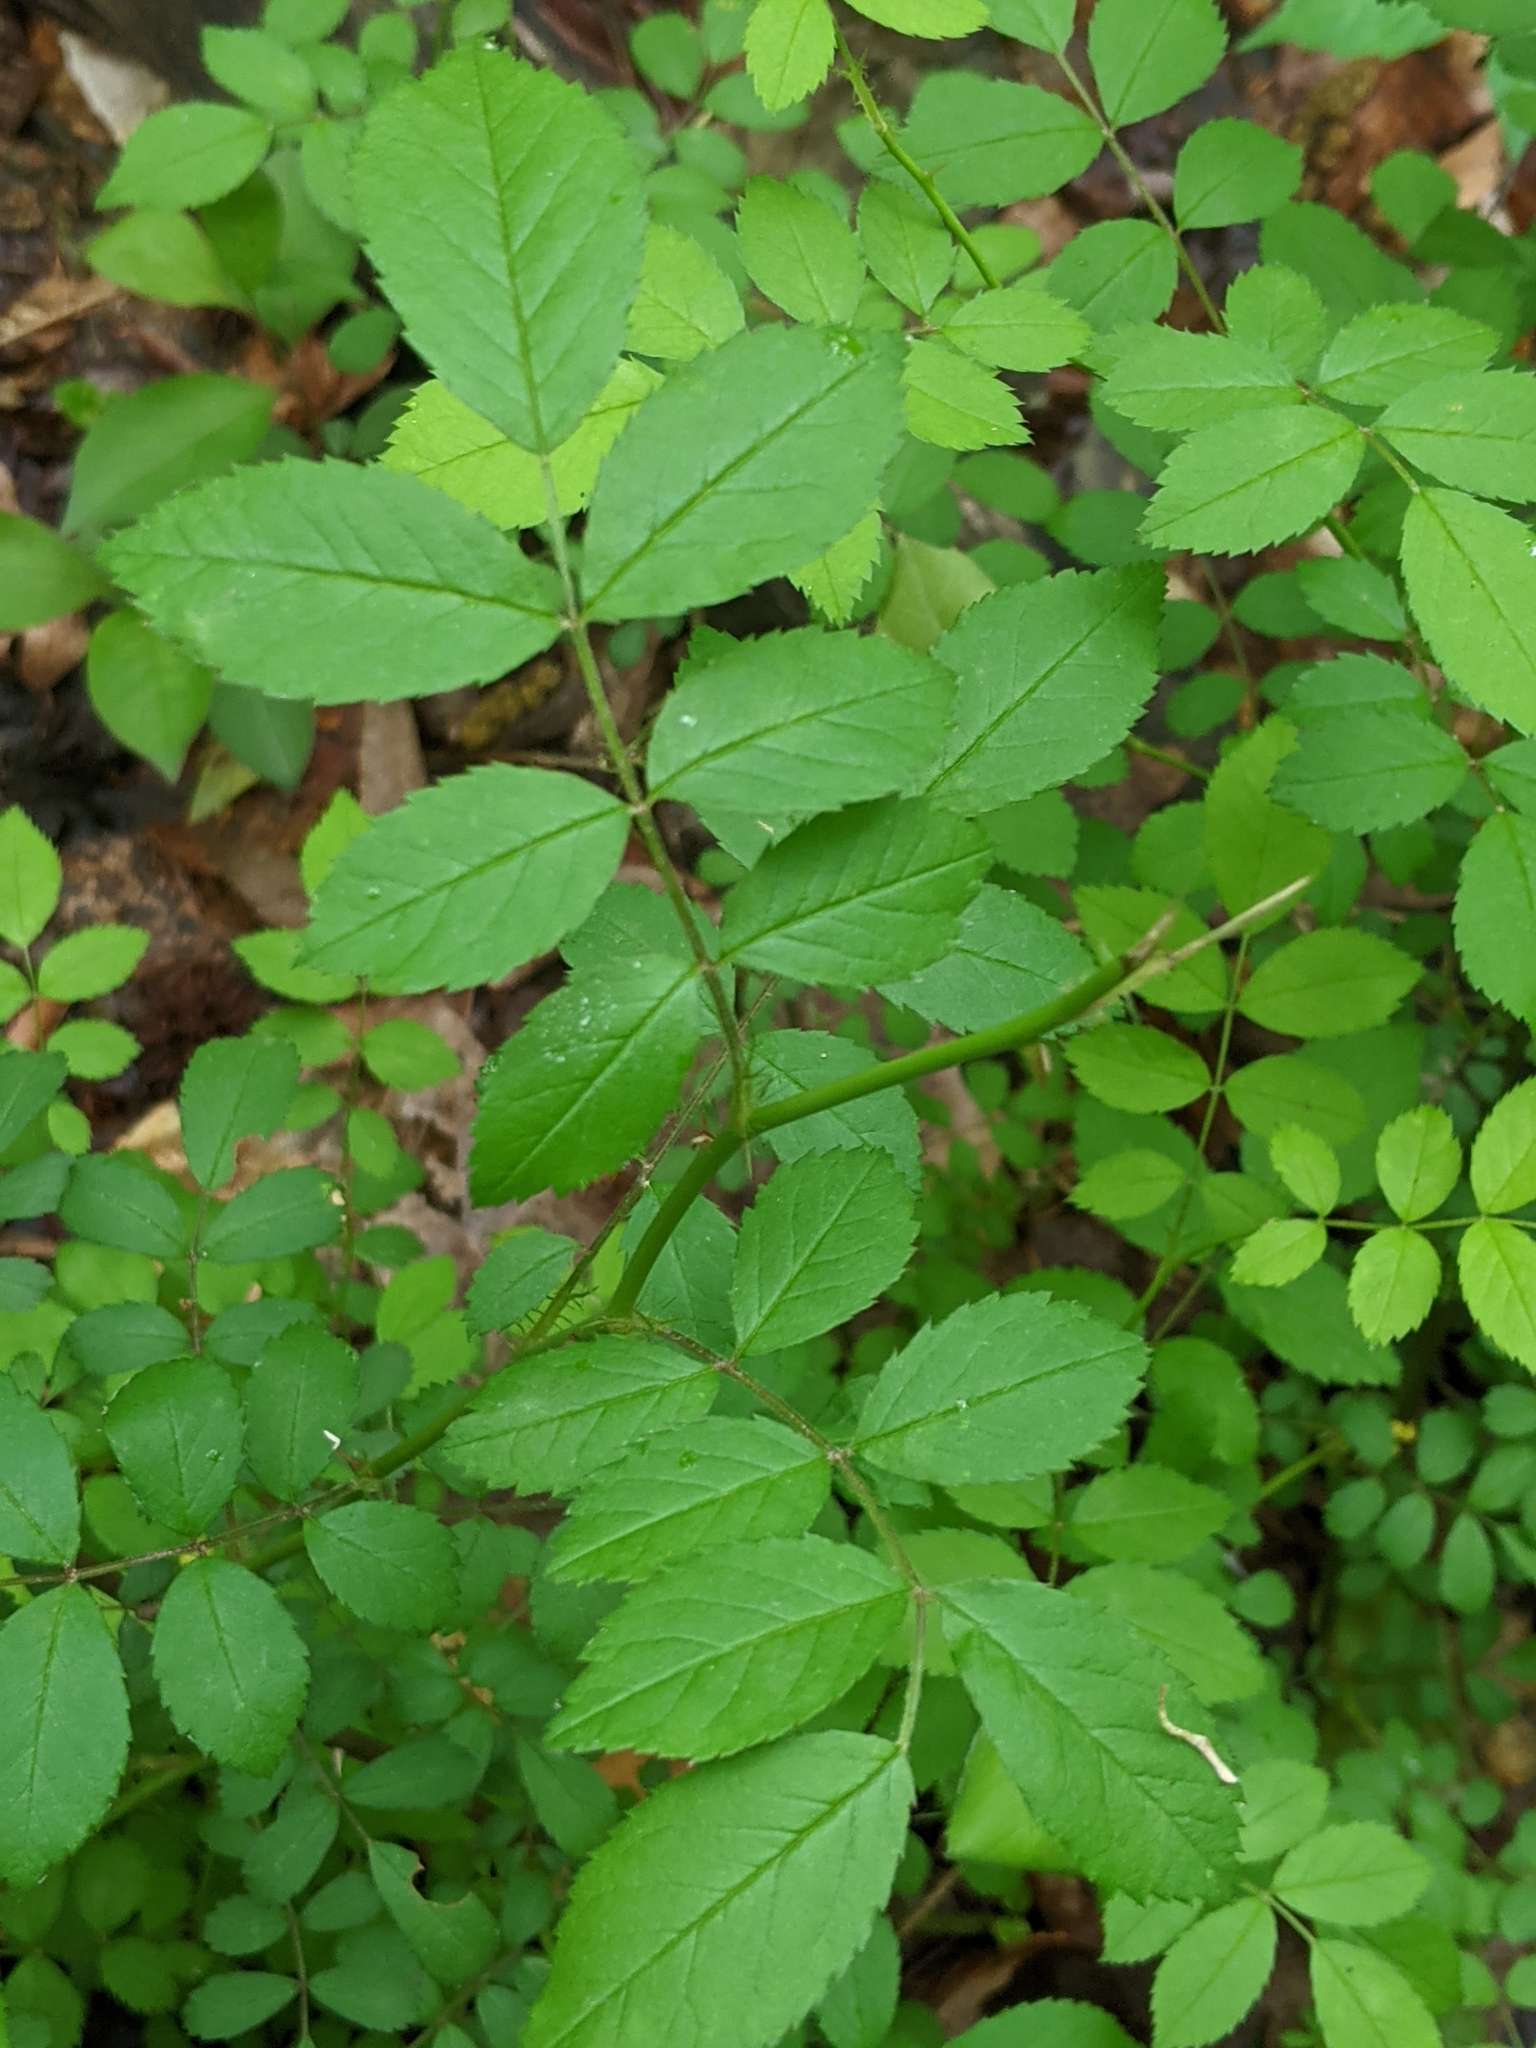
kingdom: Plantae
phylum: Tracheophyta
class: Magnoliopsida
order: Rosales
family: Rosaceae
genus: Rosa
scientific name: Rosa multiflora
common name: Multiflora rose
